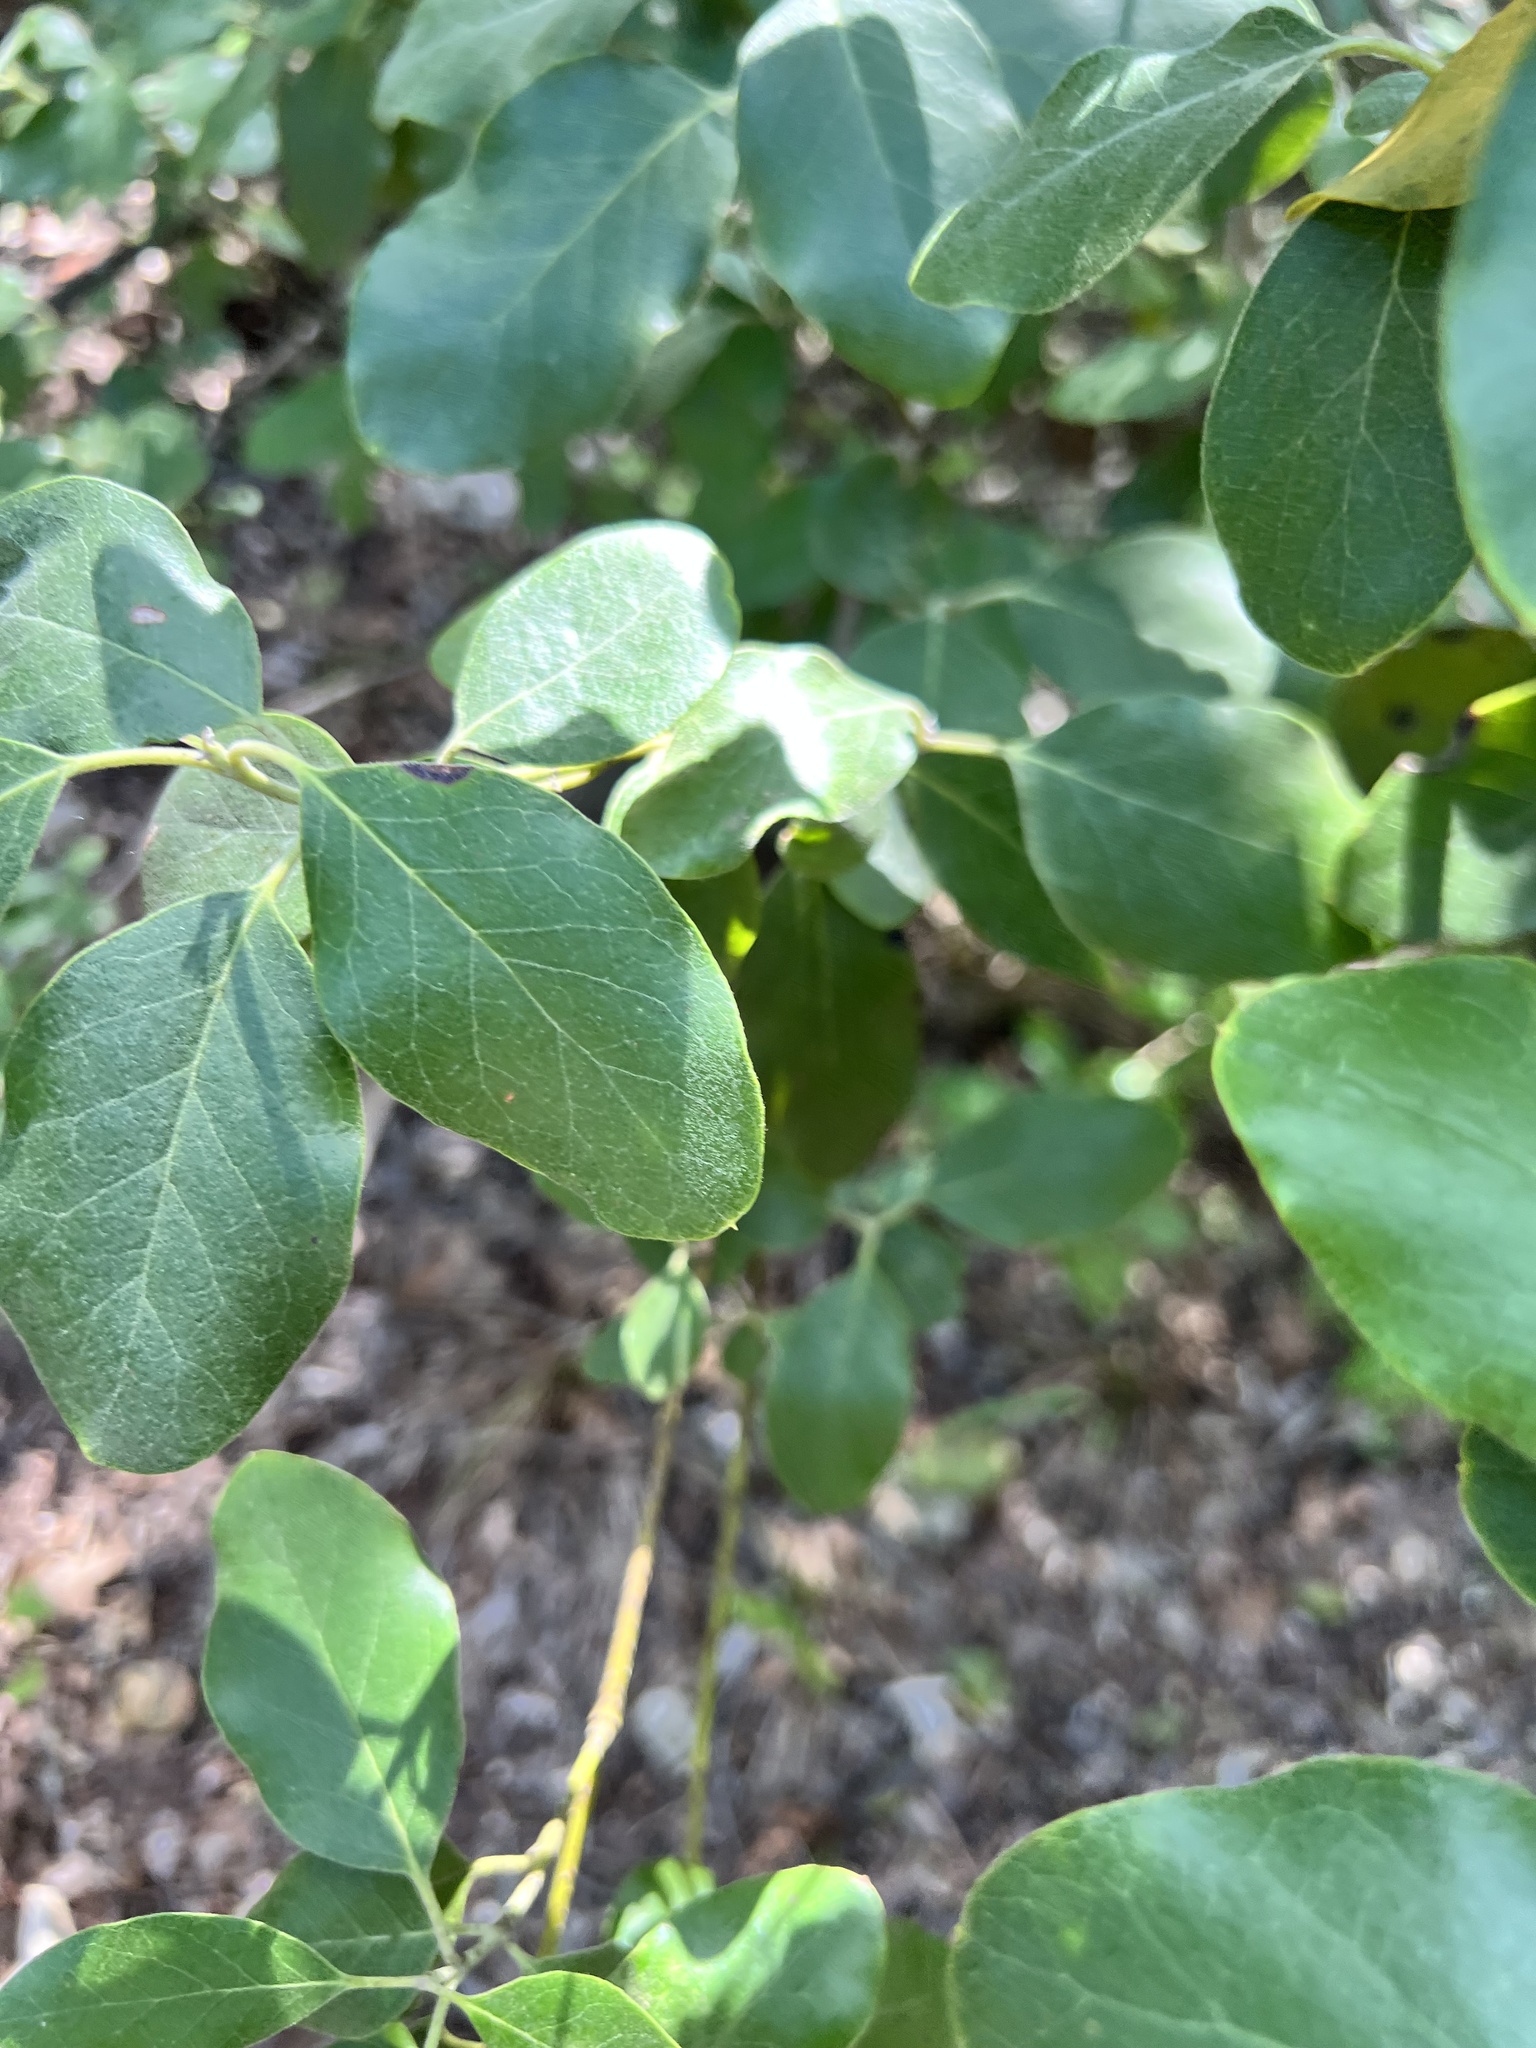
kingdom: Plantae
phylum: Tracheophyta
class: Magnoliopsida
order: Garryales
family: Garryaceae
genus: Garrya
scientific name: Garrya lindheimeri
